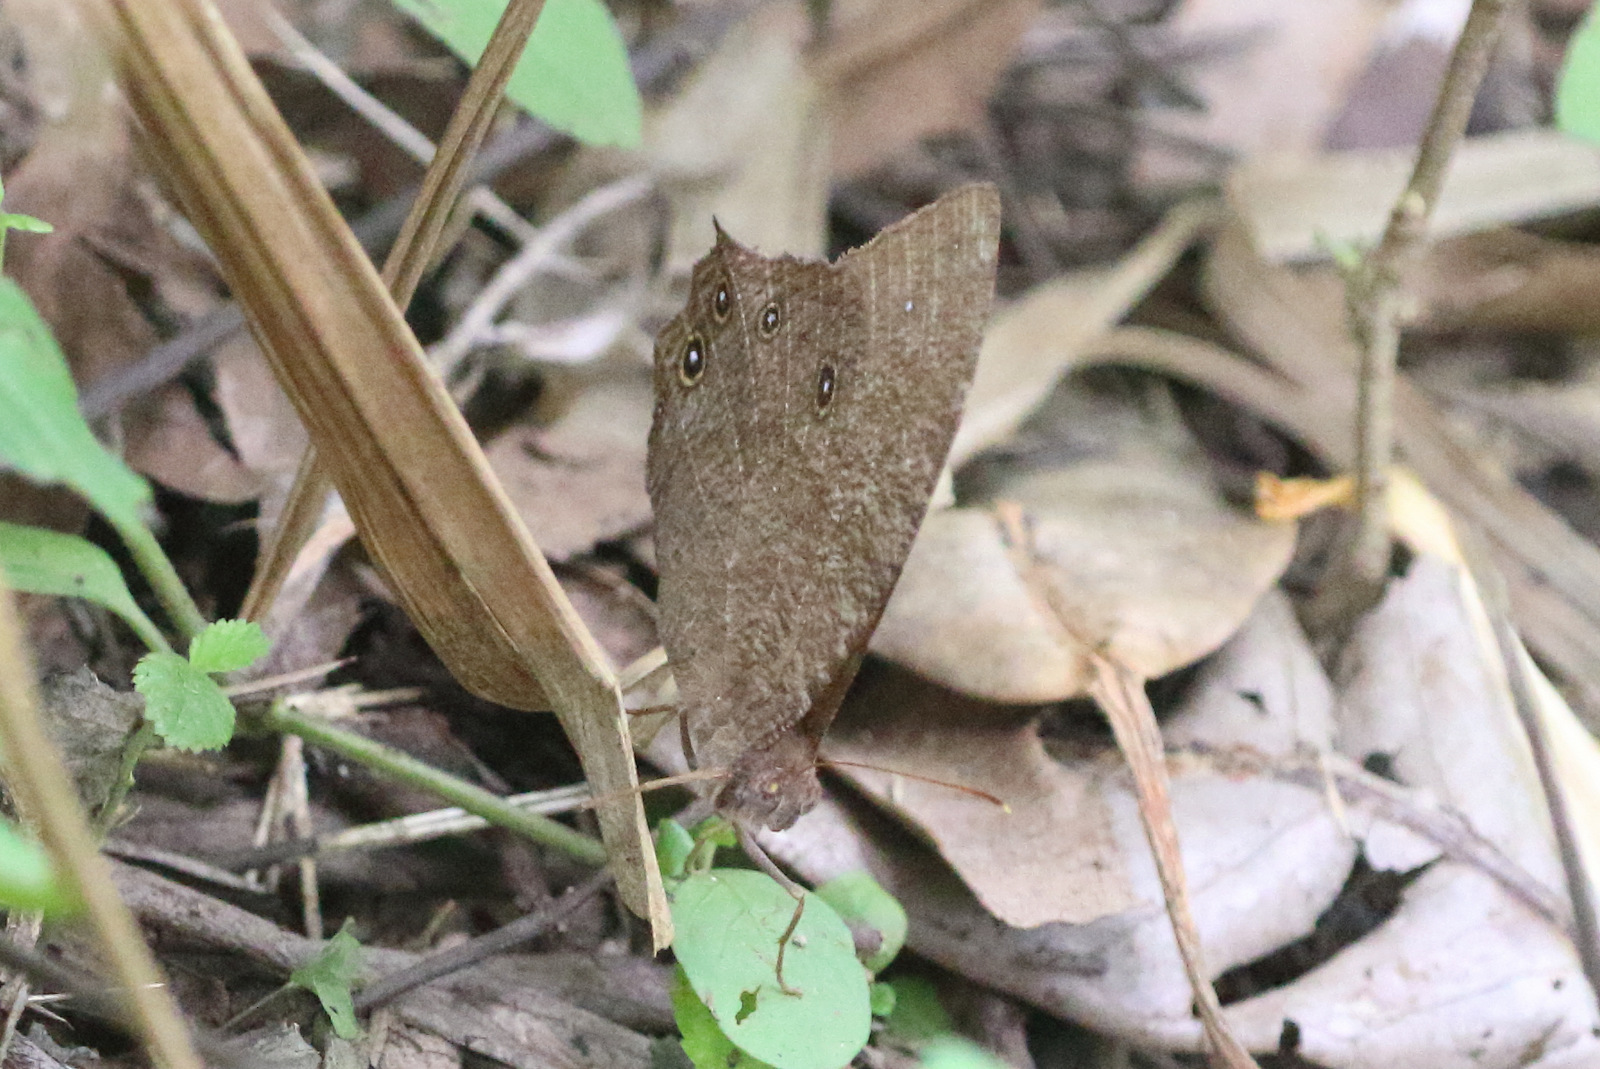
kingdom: Animalia
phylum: Arthropoda
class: Insecta
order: Lepidoptera
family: Nymphalidae
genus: Melanitis
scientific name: Melanitis leda
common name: Twilight brown
